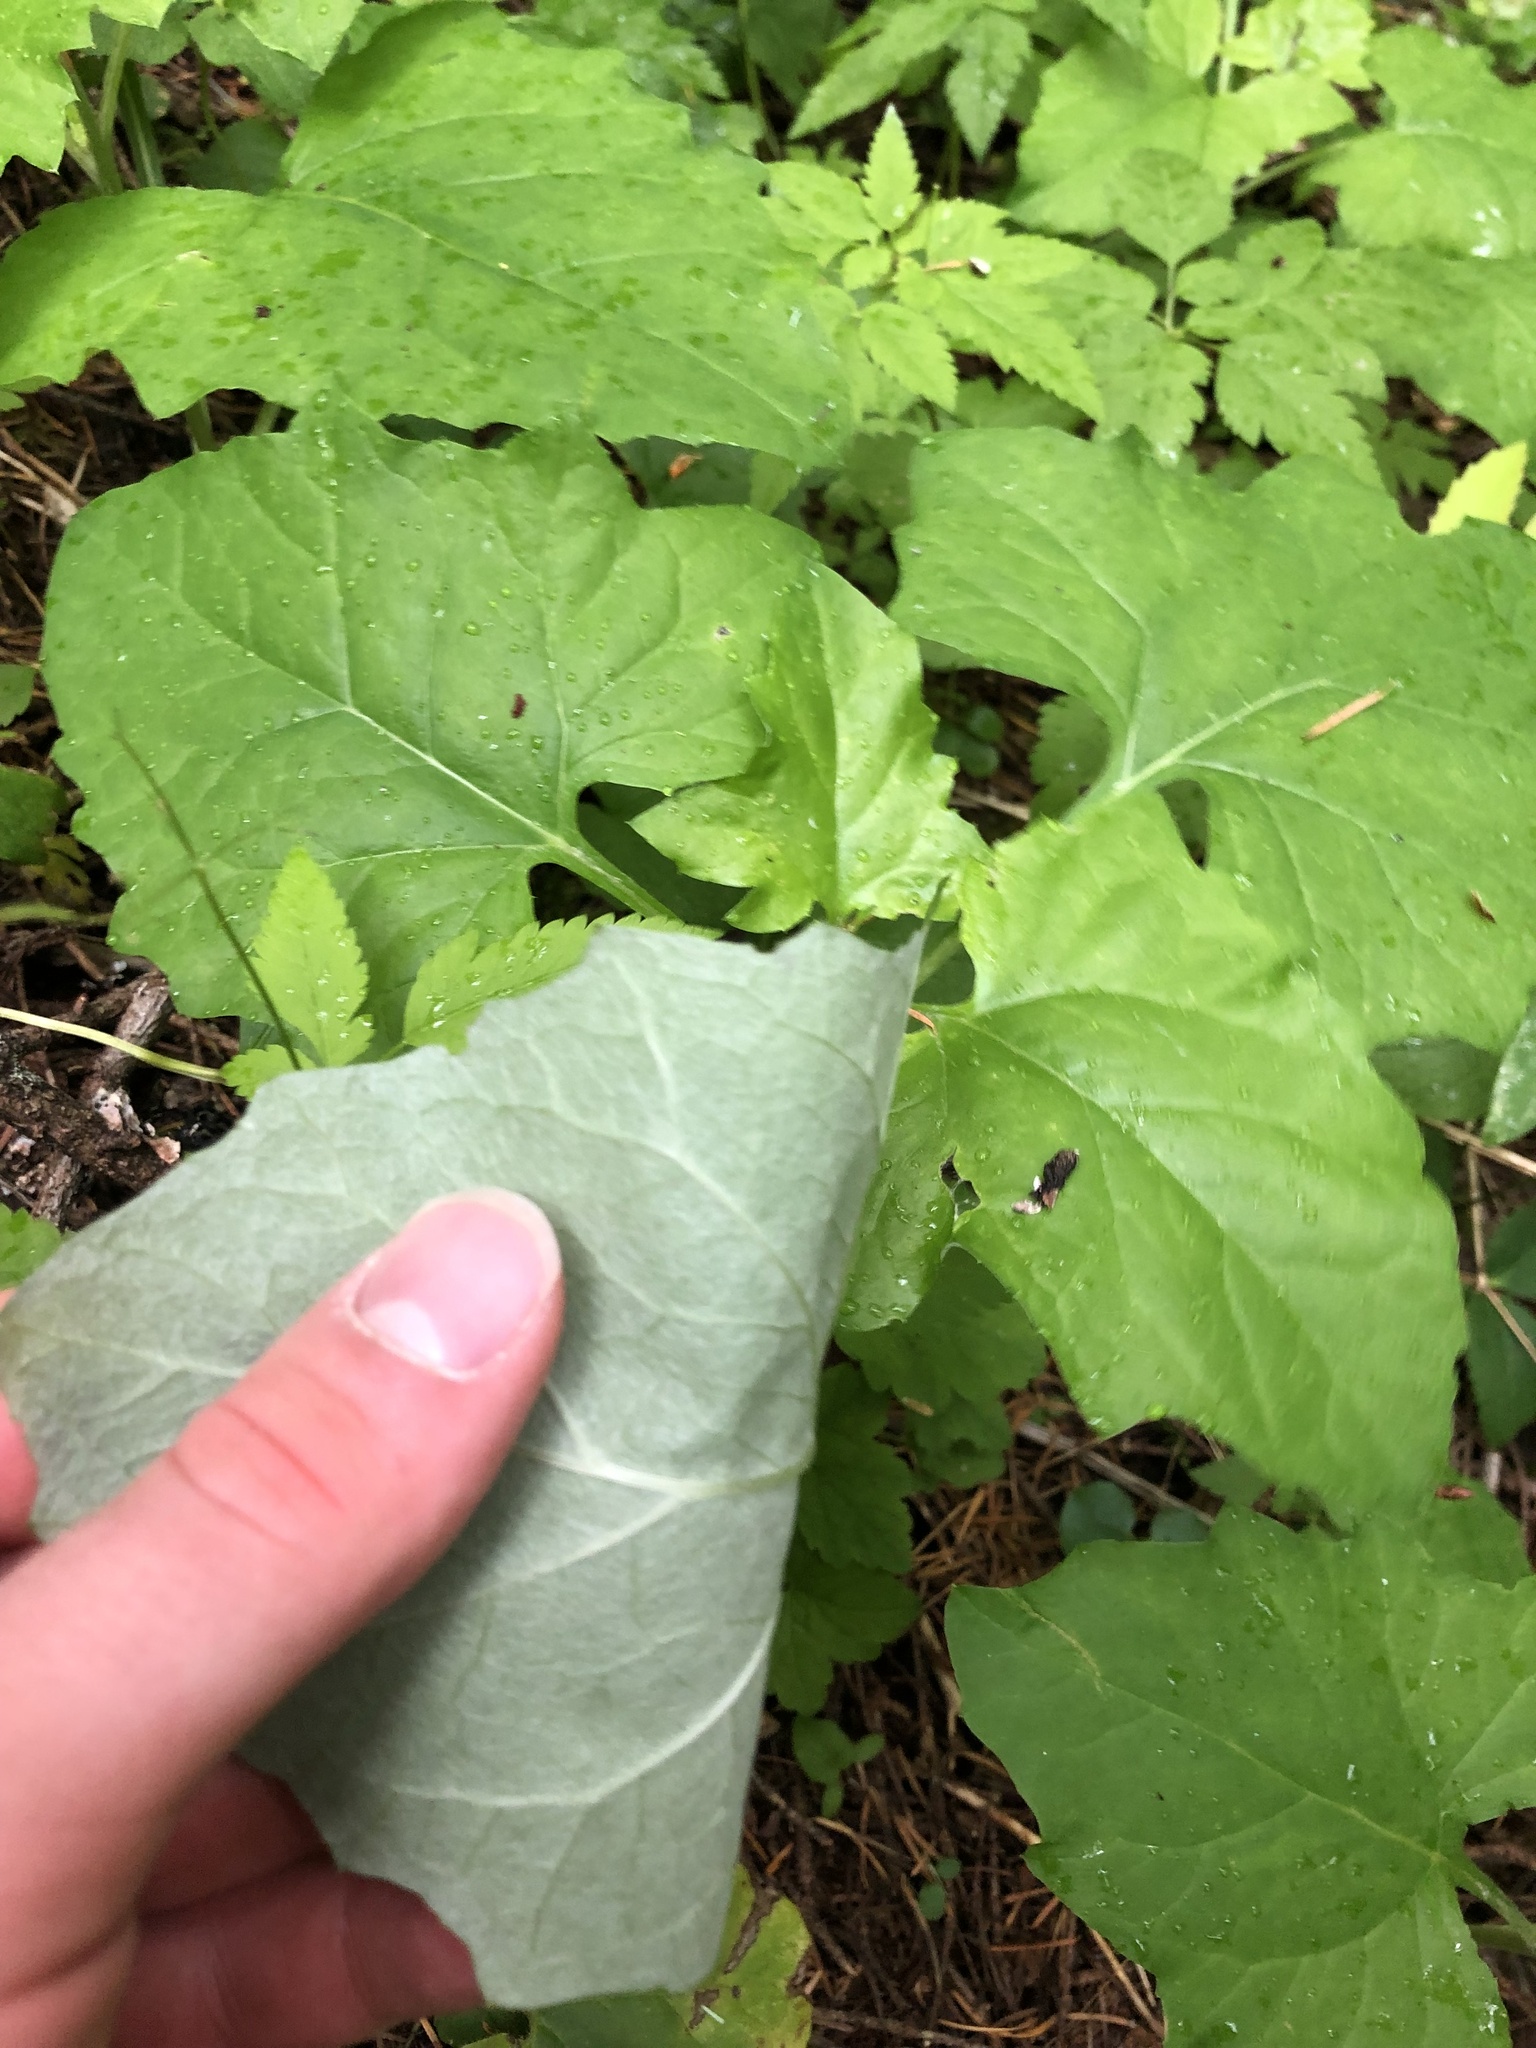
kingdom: Plantae
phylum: Tracheophyta
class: Magnoliopsida
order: Asterales
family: Asteraceae
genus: Adenocaulon
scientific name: Adenocaulon bicolor
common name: Trailplant
